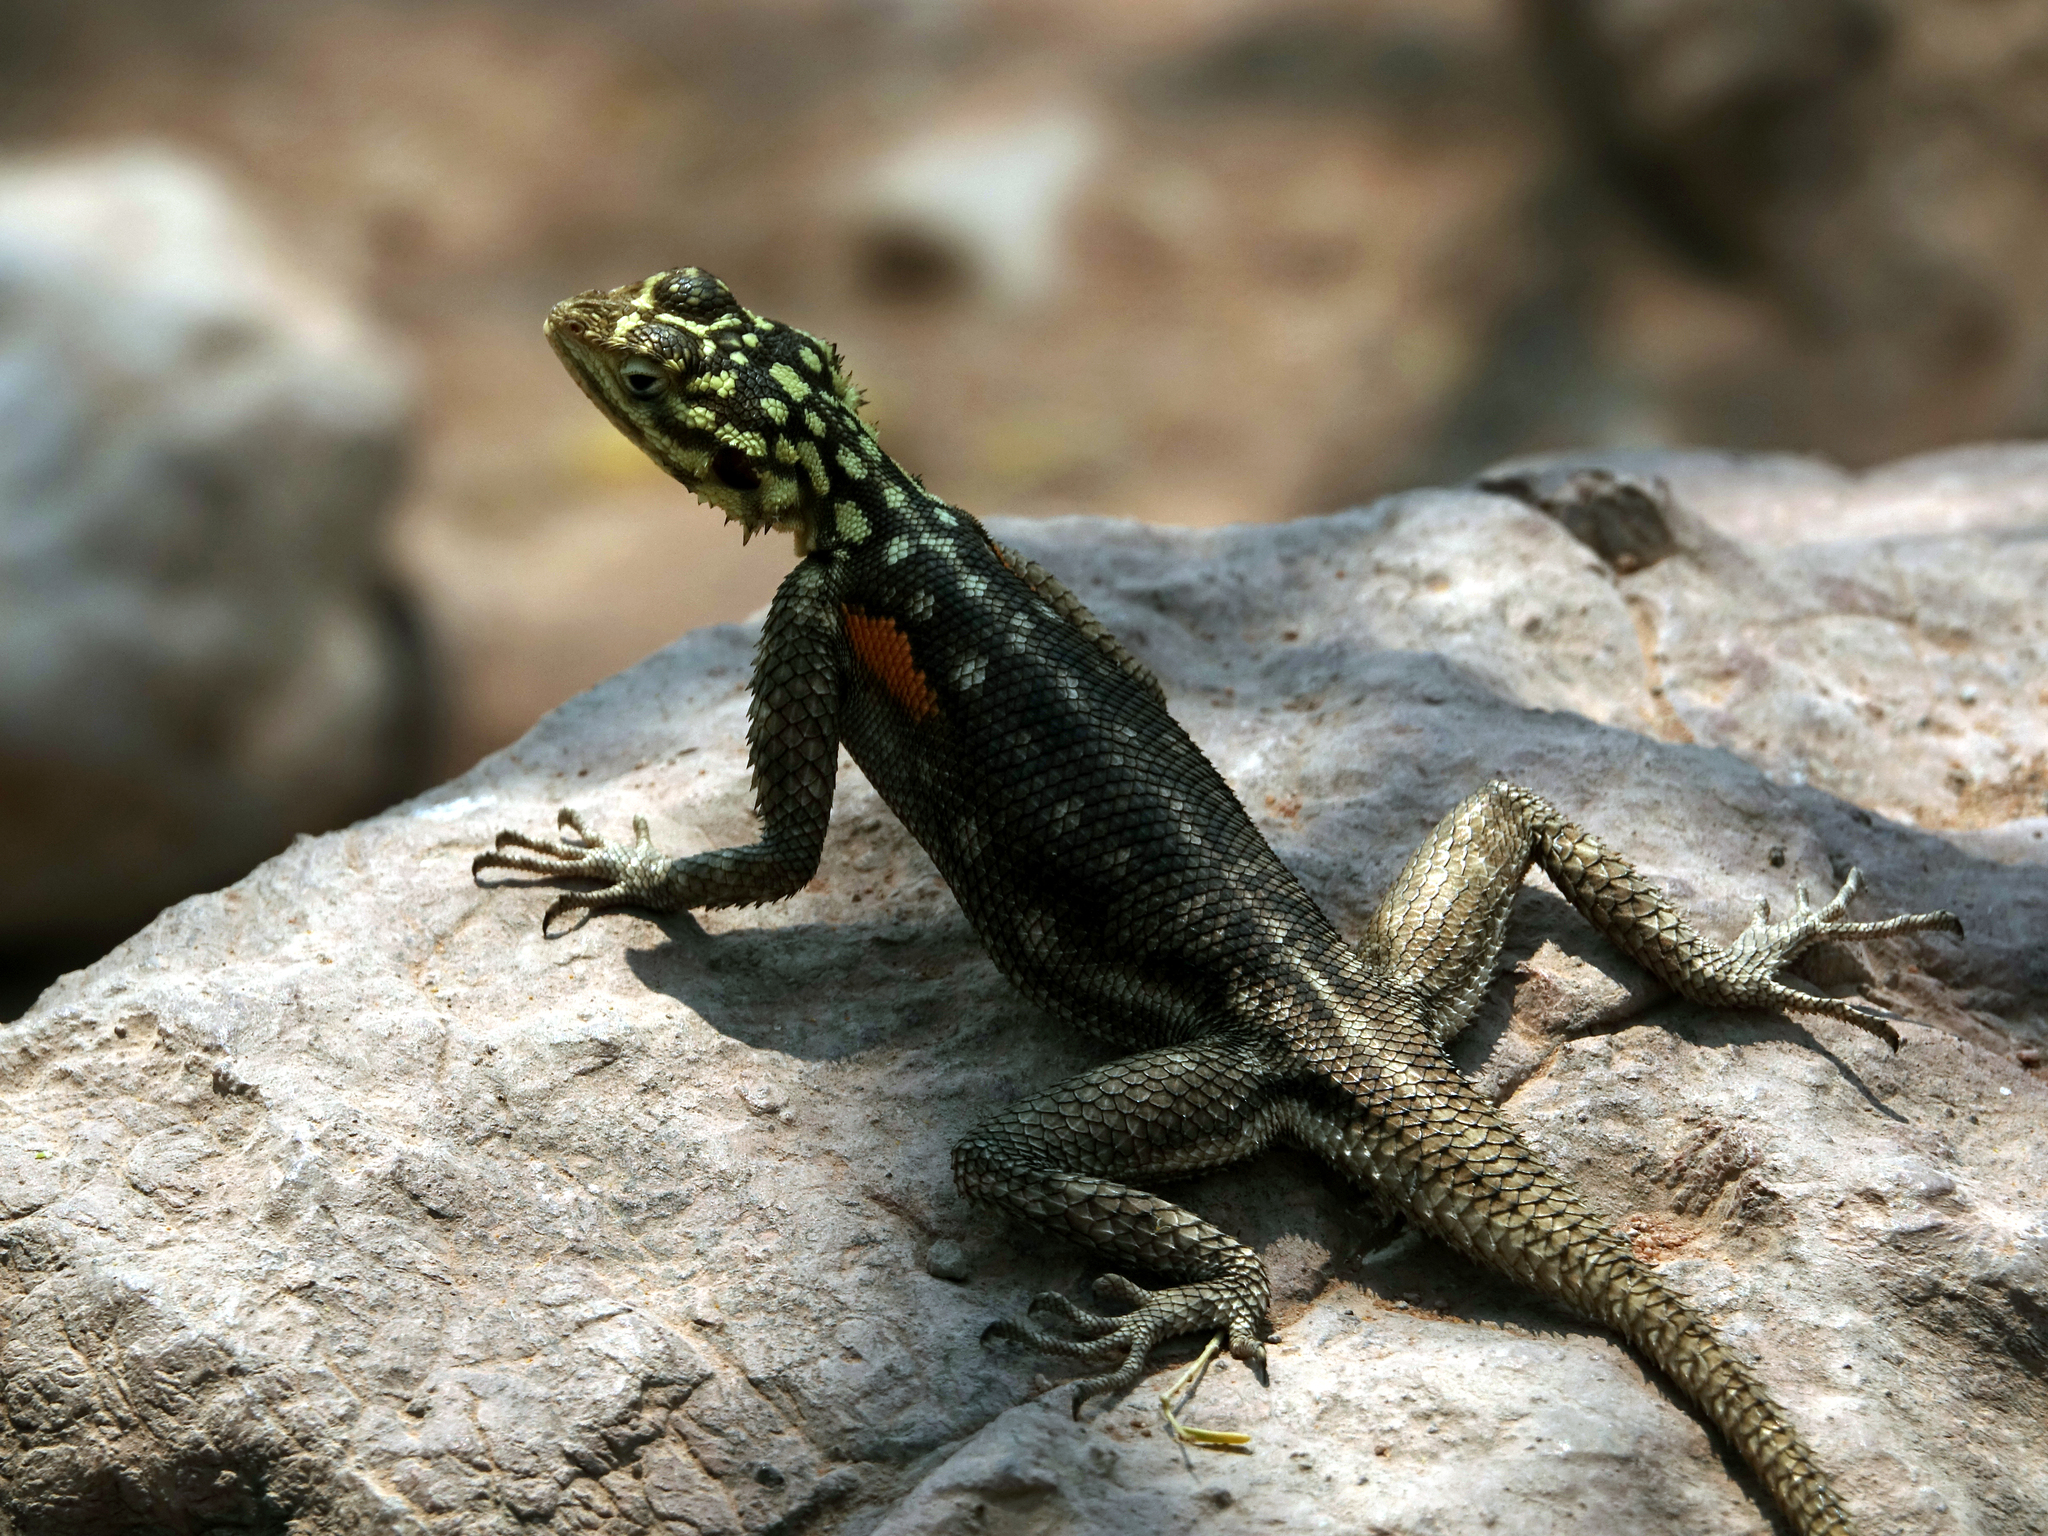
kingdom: Animalia
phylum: Chordata
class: Squamata
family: Agamidae
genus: Agama
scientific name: Agama planiceps
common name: Namib rock agama
